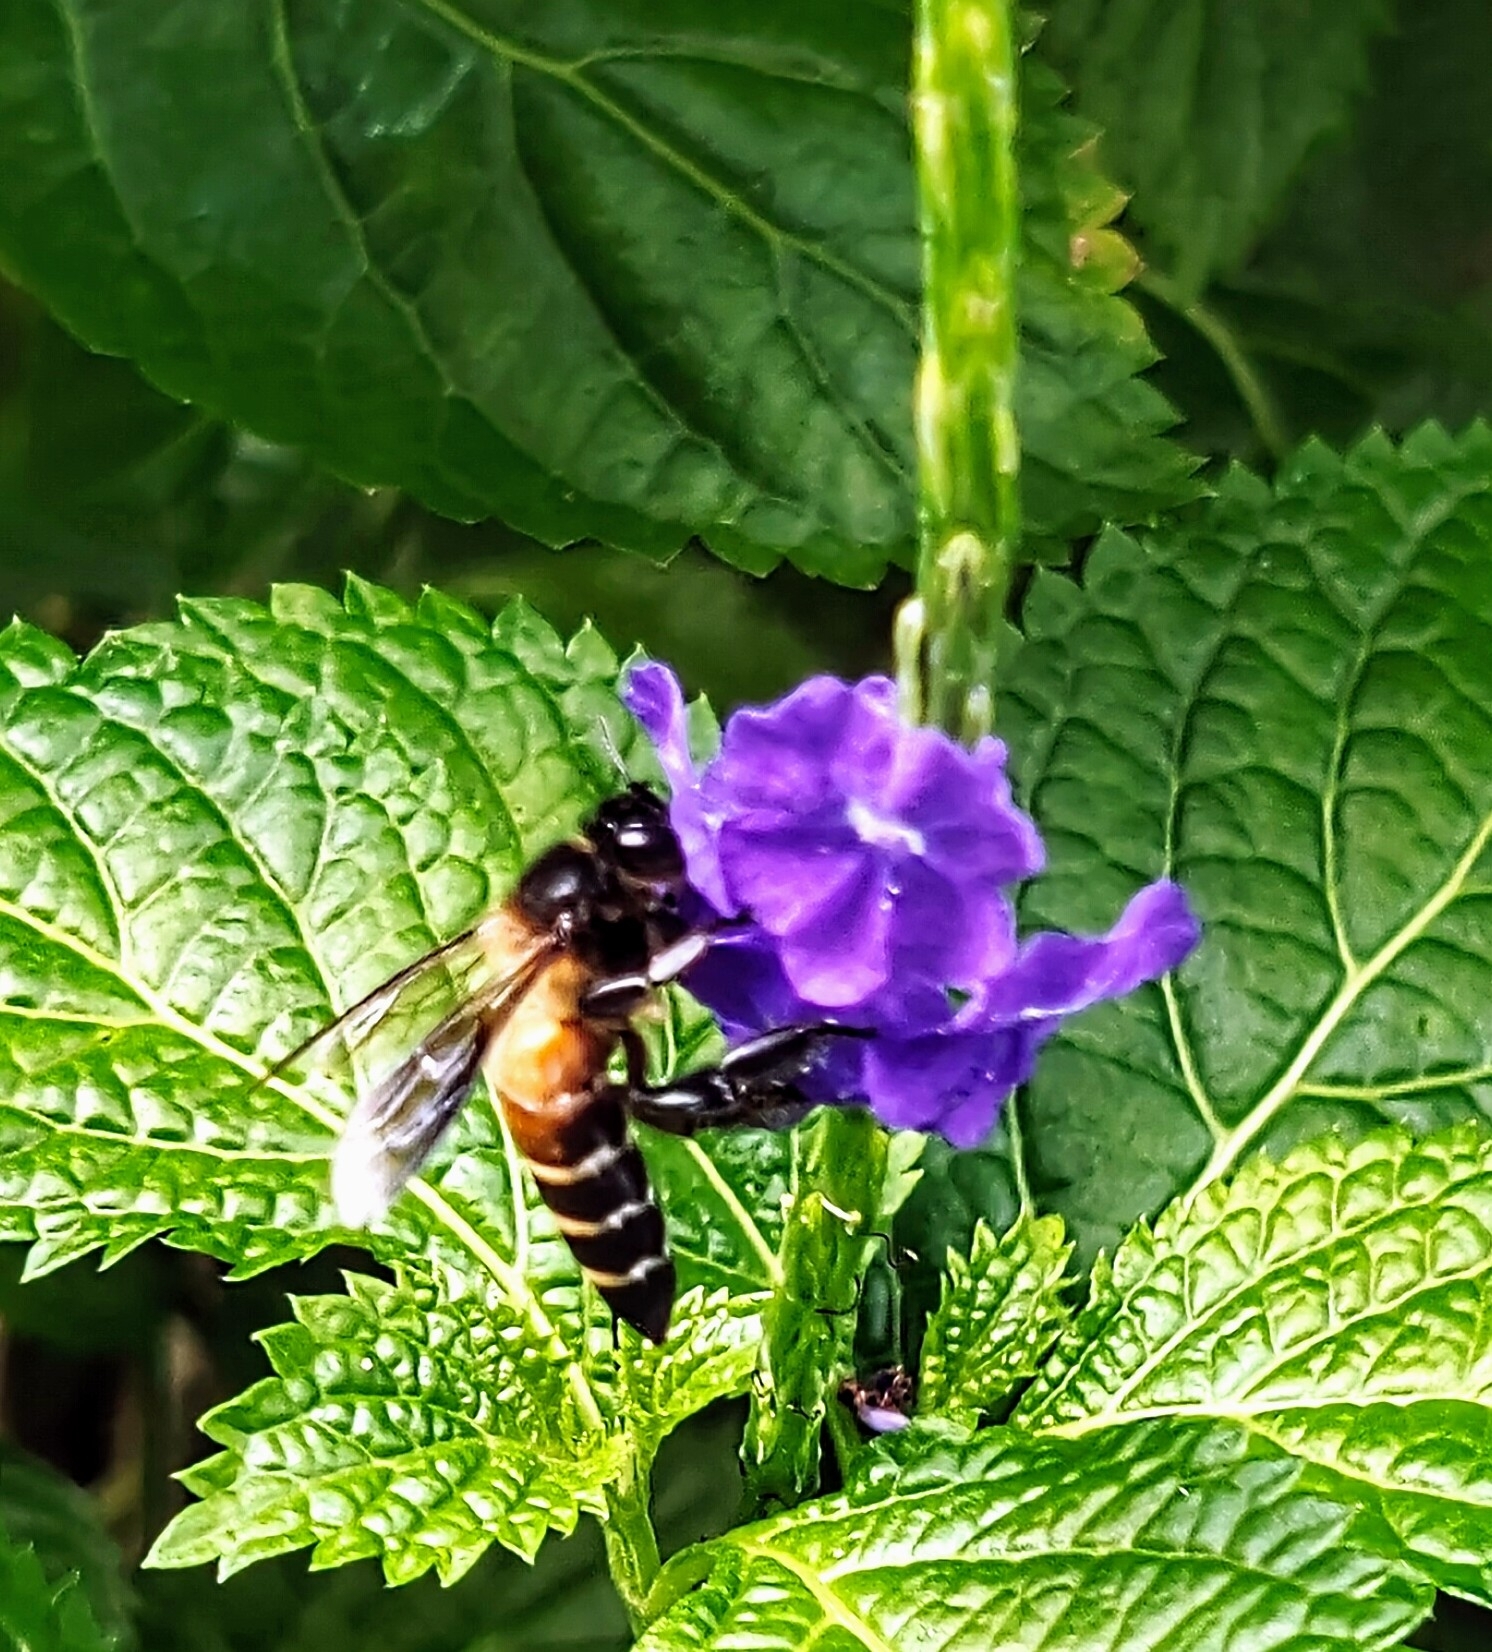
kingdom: Animalia
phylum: Arthropoda
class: Insecta
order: Hymenoptera
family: Apidae
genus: Apis
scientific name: Apis dorsata
